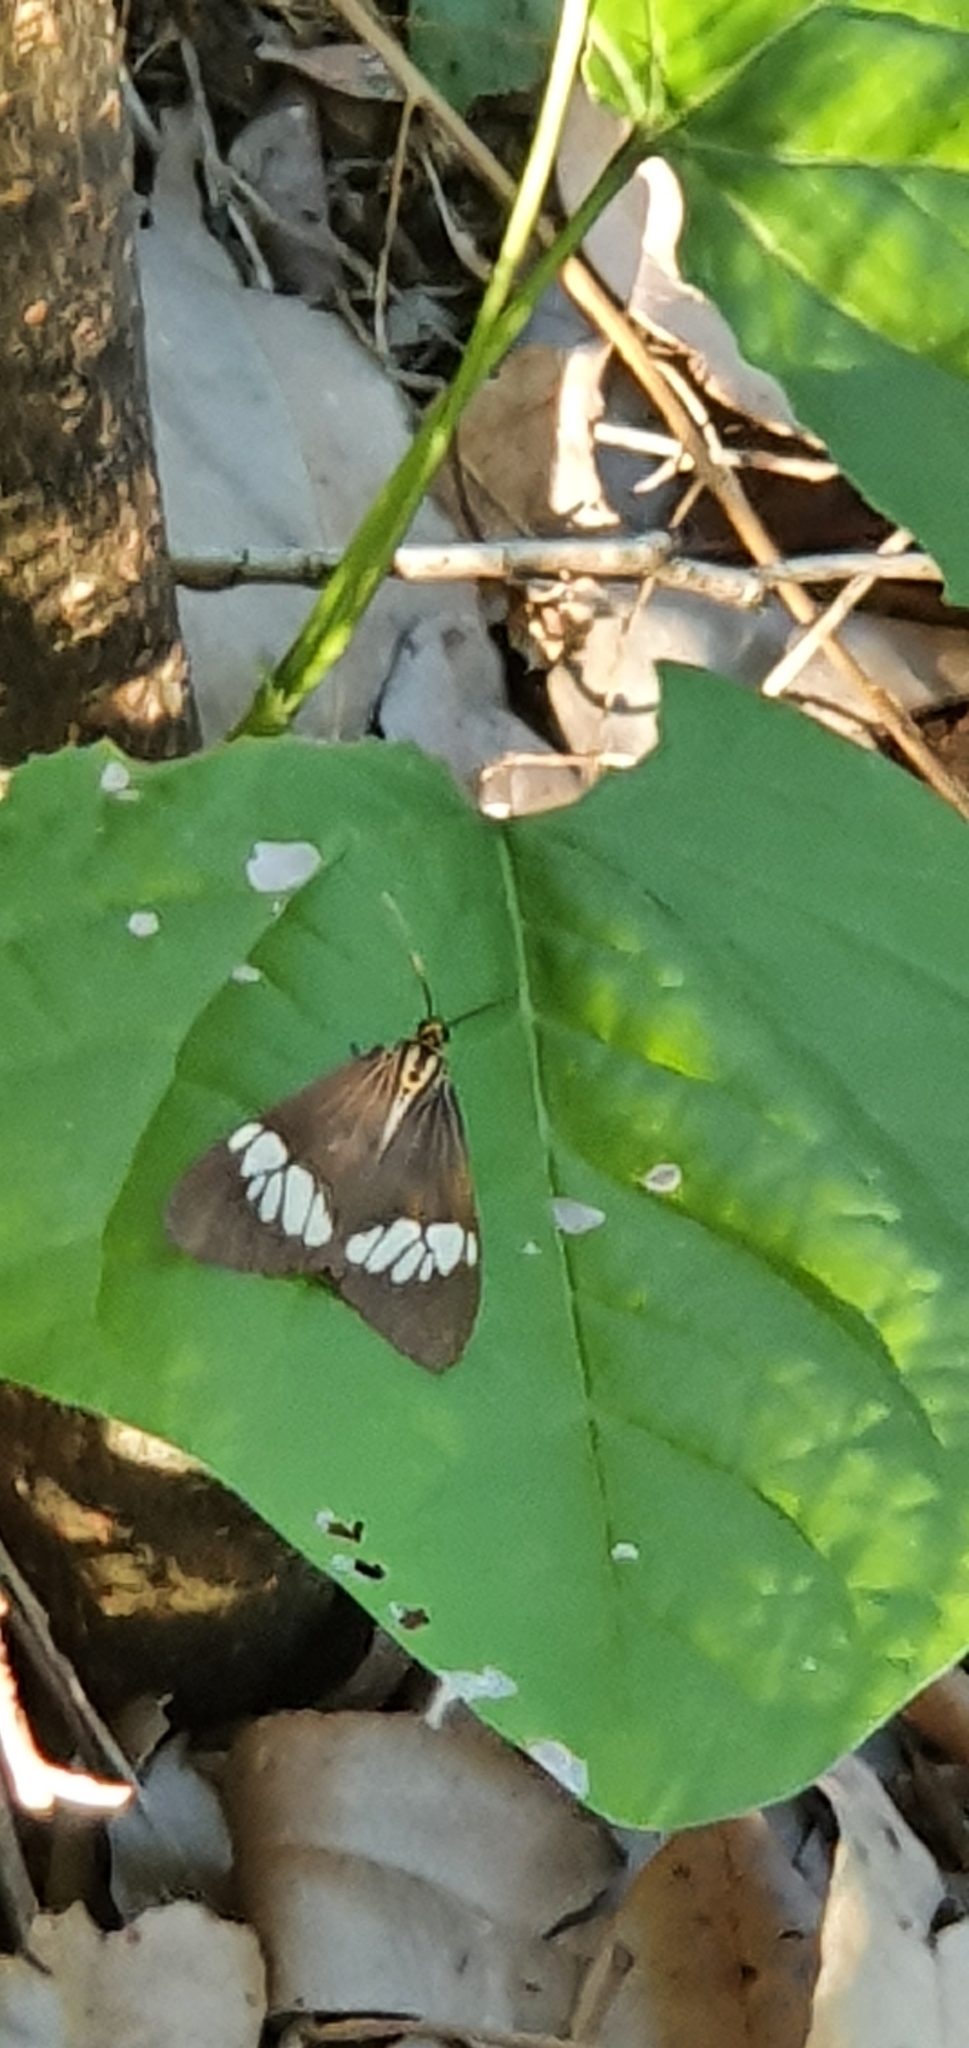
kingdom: Animalia
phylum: Arthropoda
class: Insecta
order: Lepidoptera
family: Erebidae
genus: Nyctemera
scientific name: Nyctemera baulus
